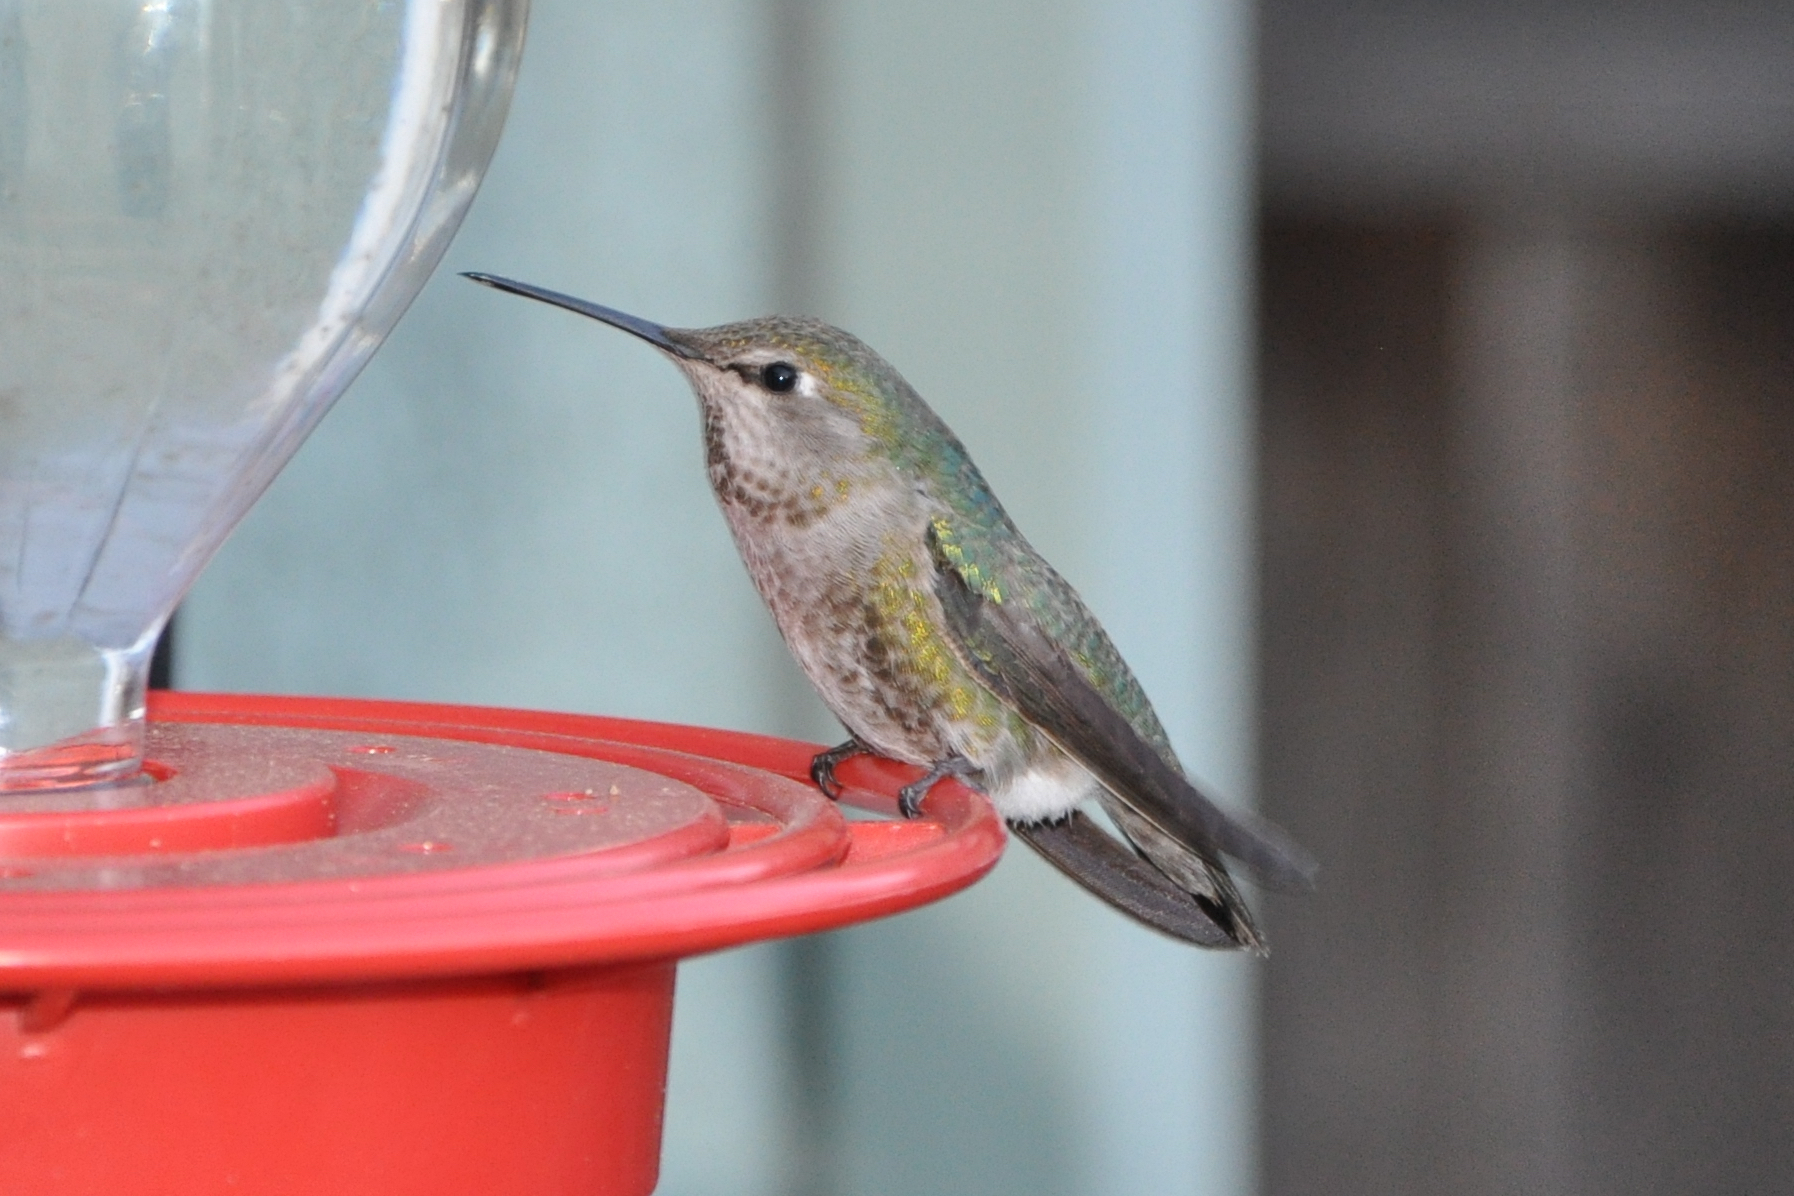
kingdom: Animalia
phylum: Chordata
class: Aves
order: Apodiformes
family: Trochilidae
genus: Calypte
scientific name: Calypte anna
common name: Anna's hummingbird
